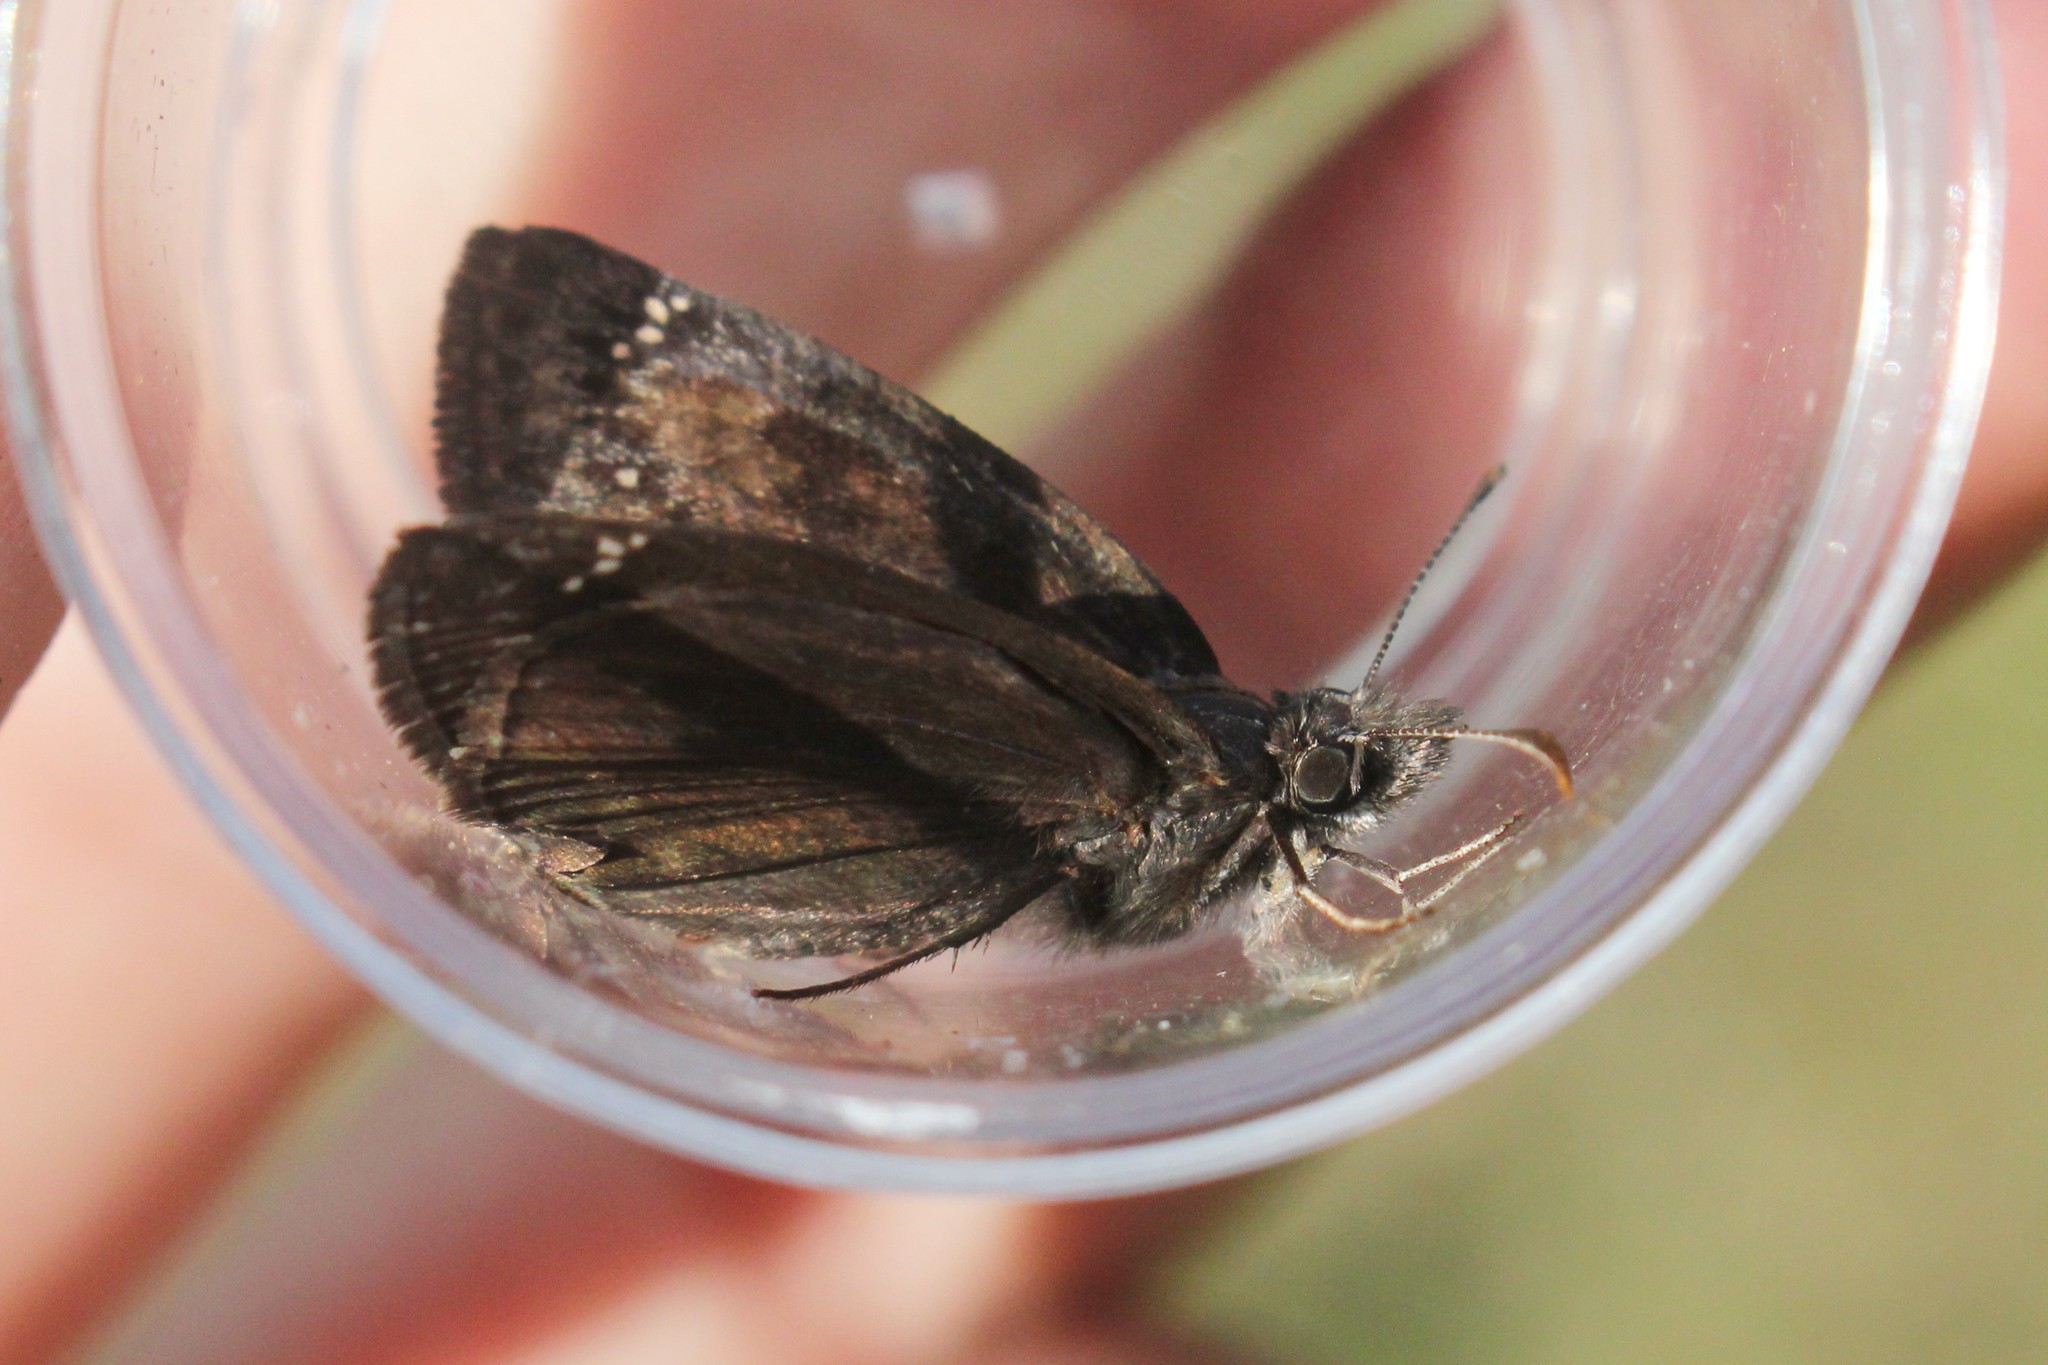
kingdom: Animalia
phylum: Arthropoda
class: Insecta
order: Lepidoptera
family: Hesperiidae
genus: Erynnis
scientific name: Erynnis baptisiae
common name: Wild indigo duskywing
